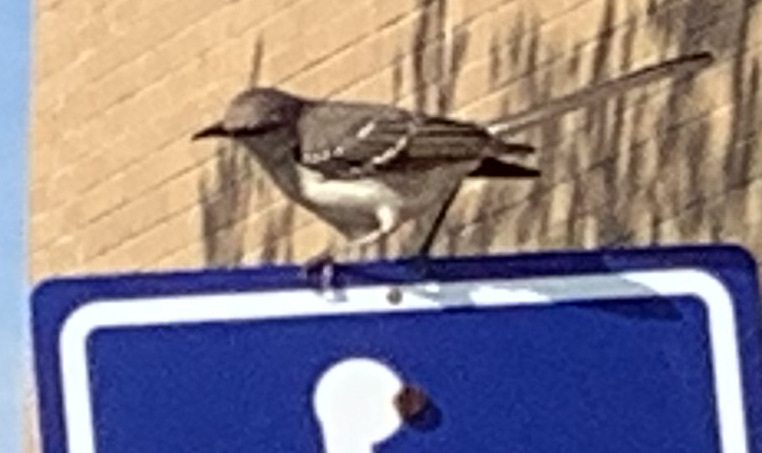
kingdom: Animalia
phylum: Chordata
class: Aves
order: Passeriformes
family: Mimidae
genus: Mimus
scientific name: Mimus polyglottos
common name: Northern mockingbird
